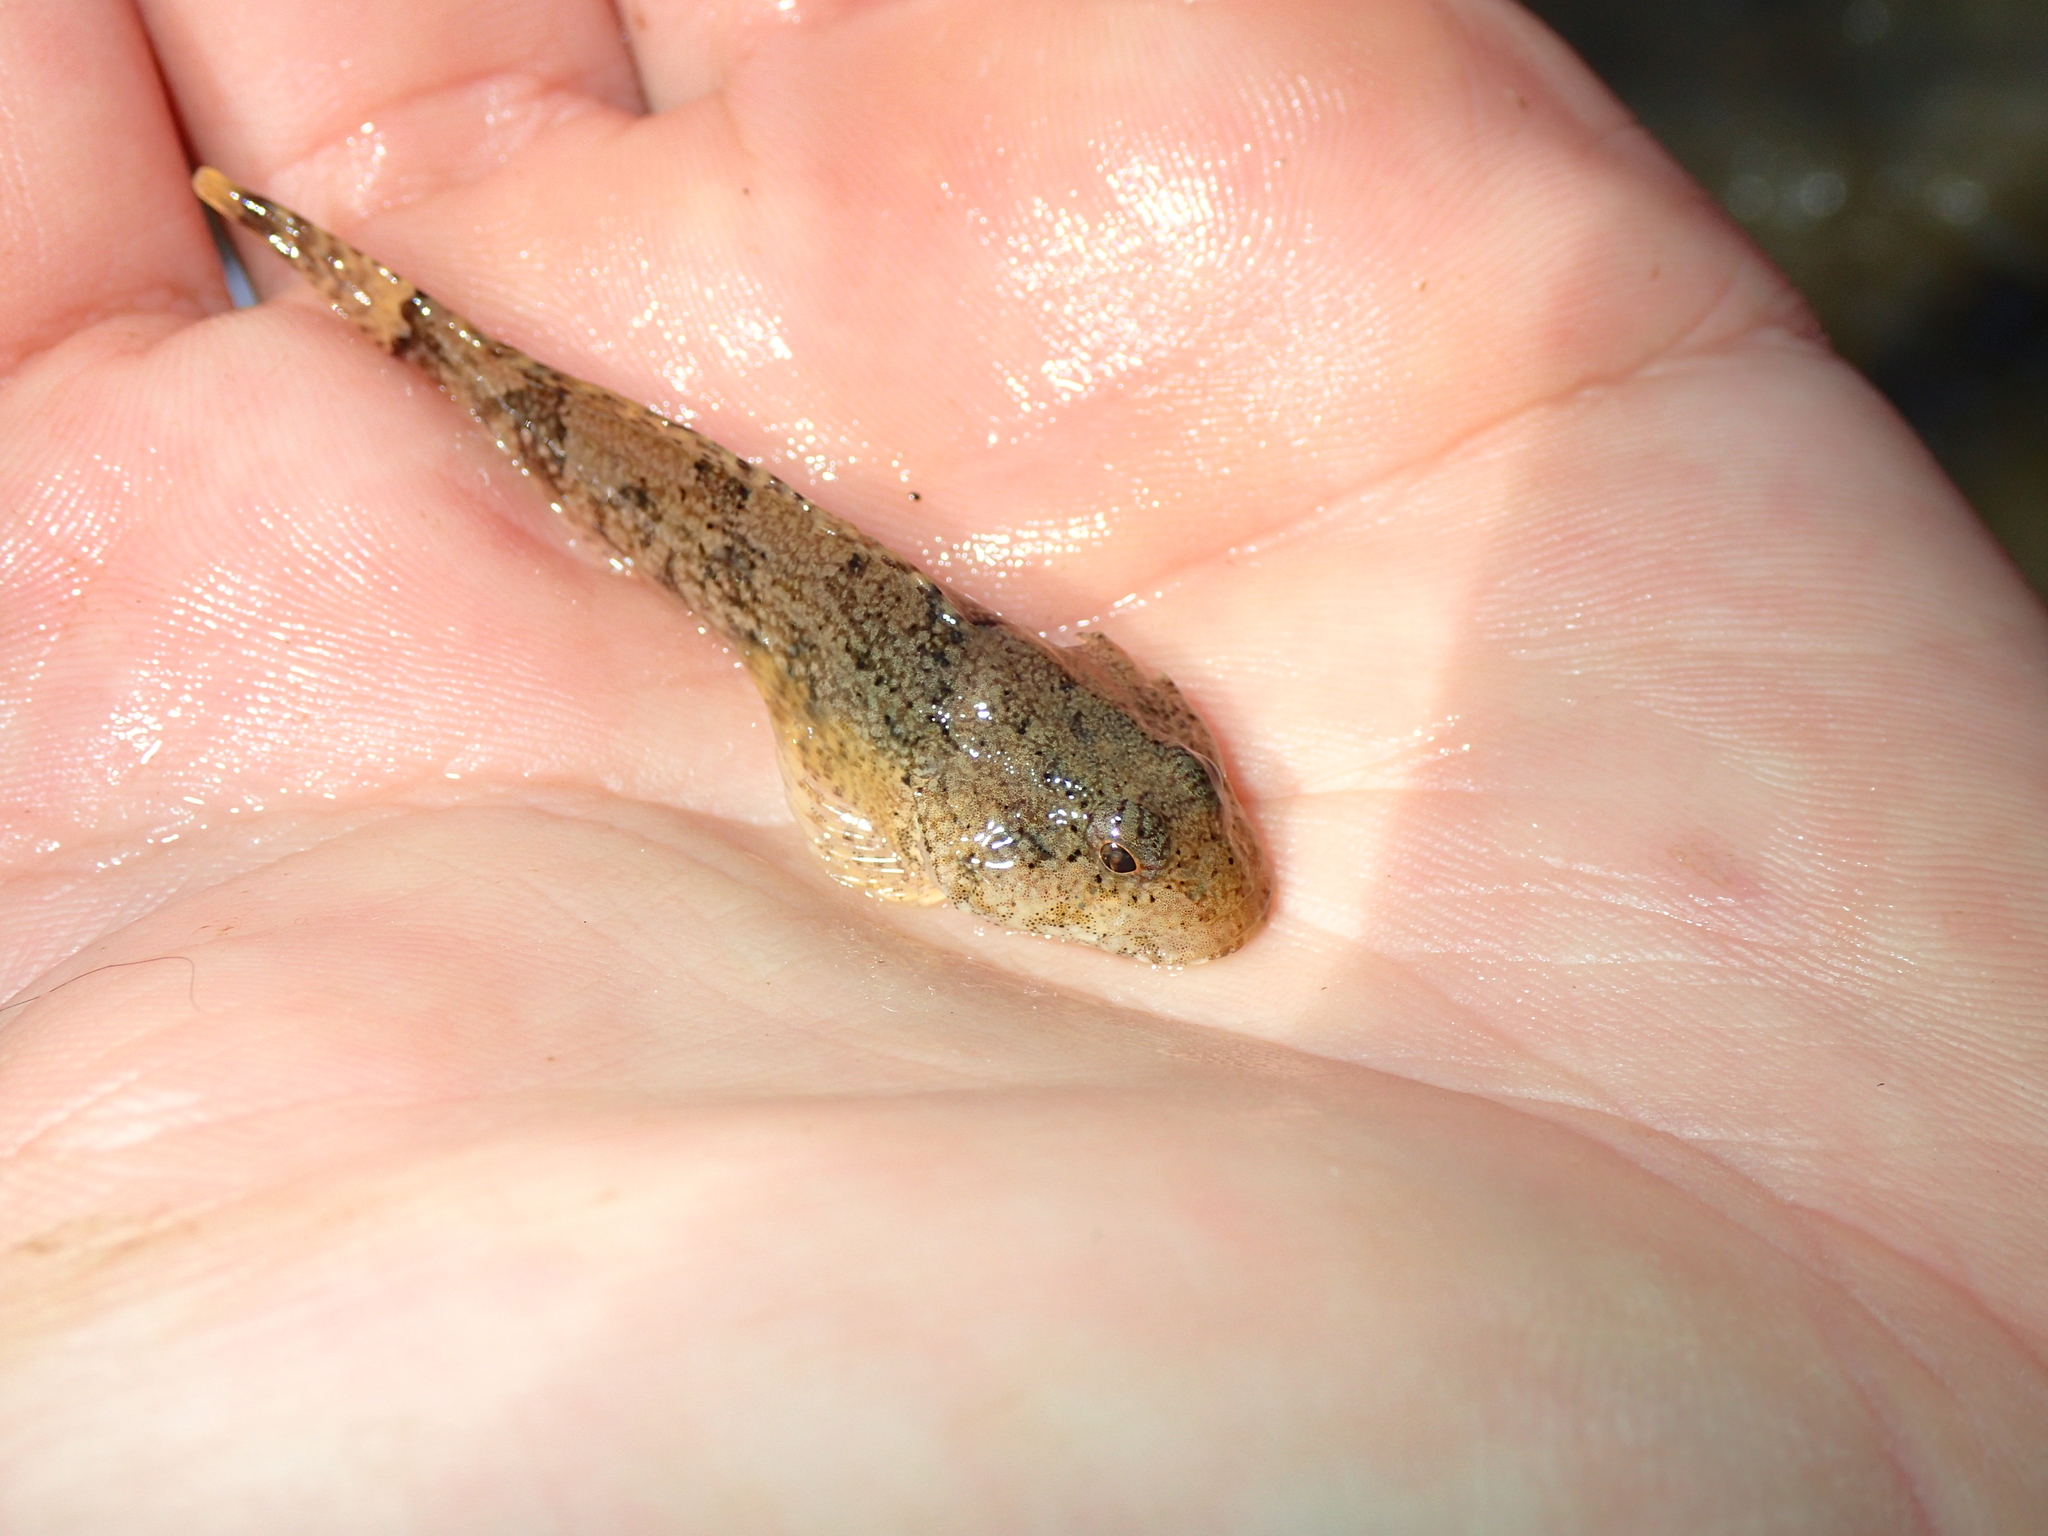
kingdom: Animalia
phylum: Chordata
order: Scorpaeniformes
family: Cottidae
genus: Cottus
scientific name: Cottus girardi
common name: Potomac sculpin
